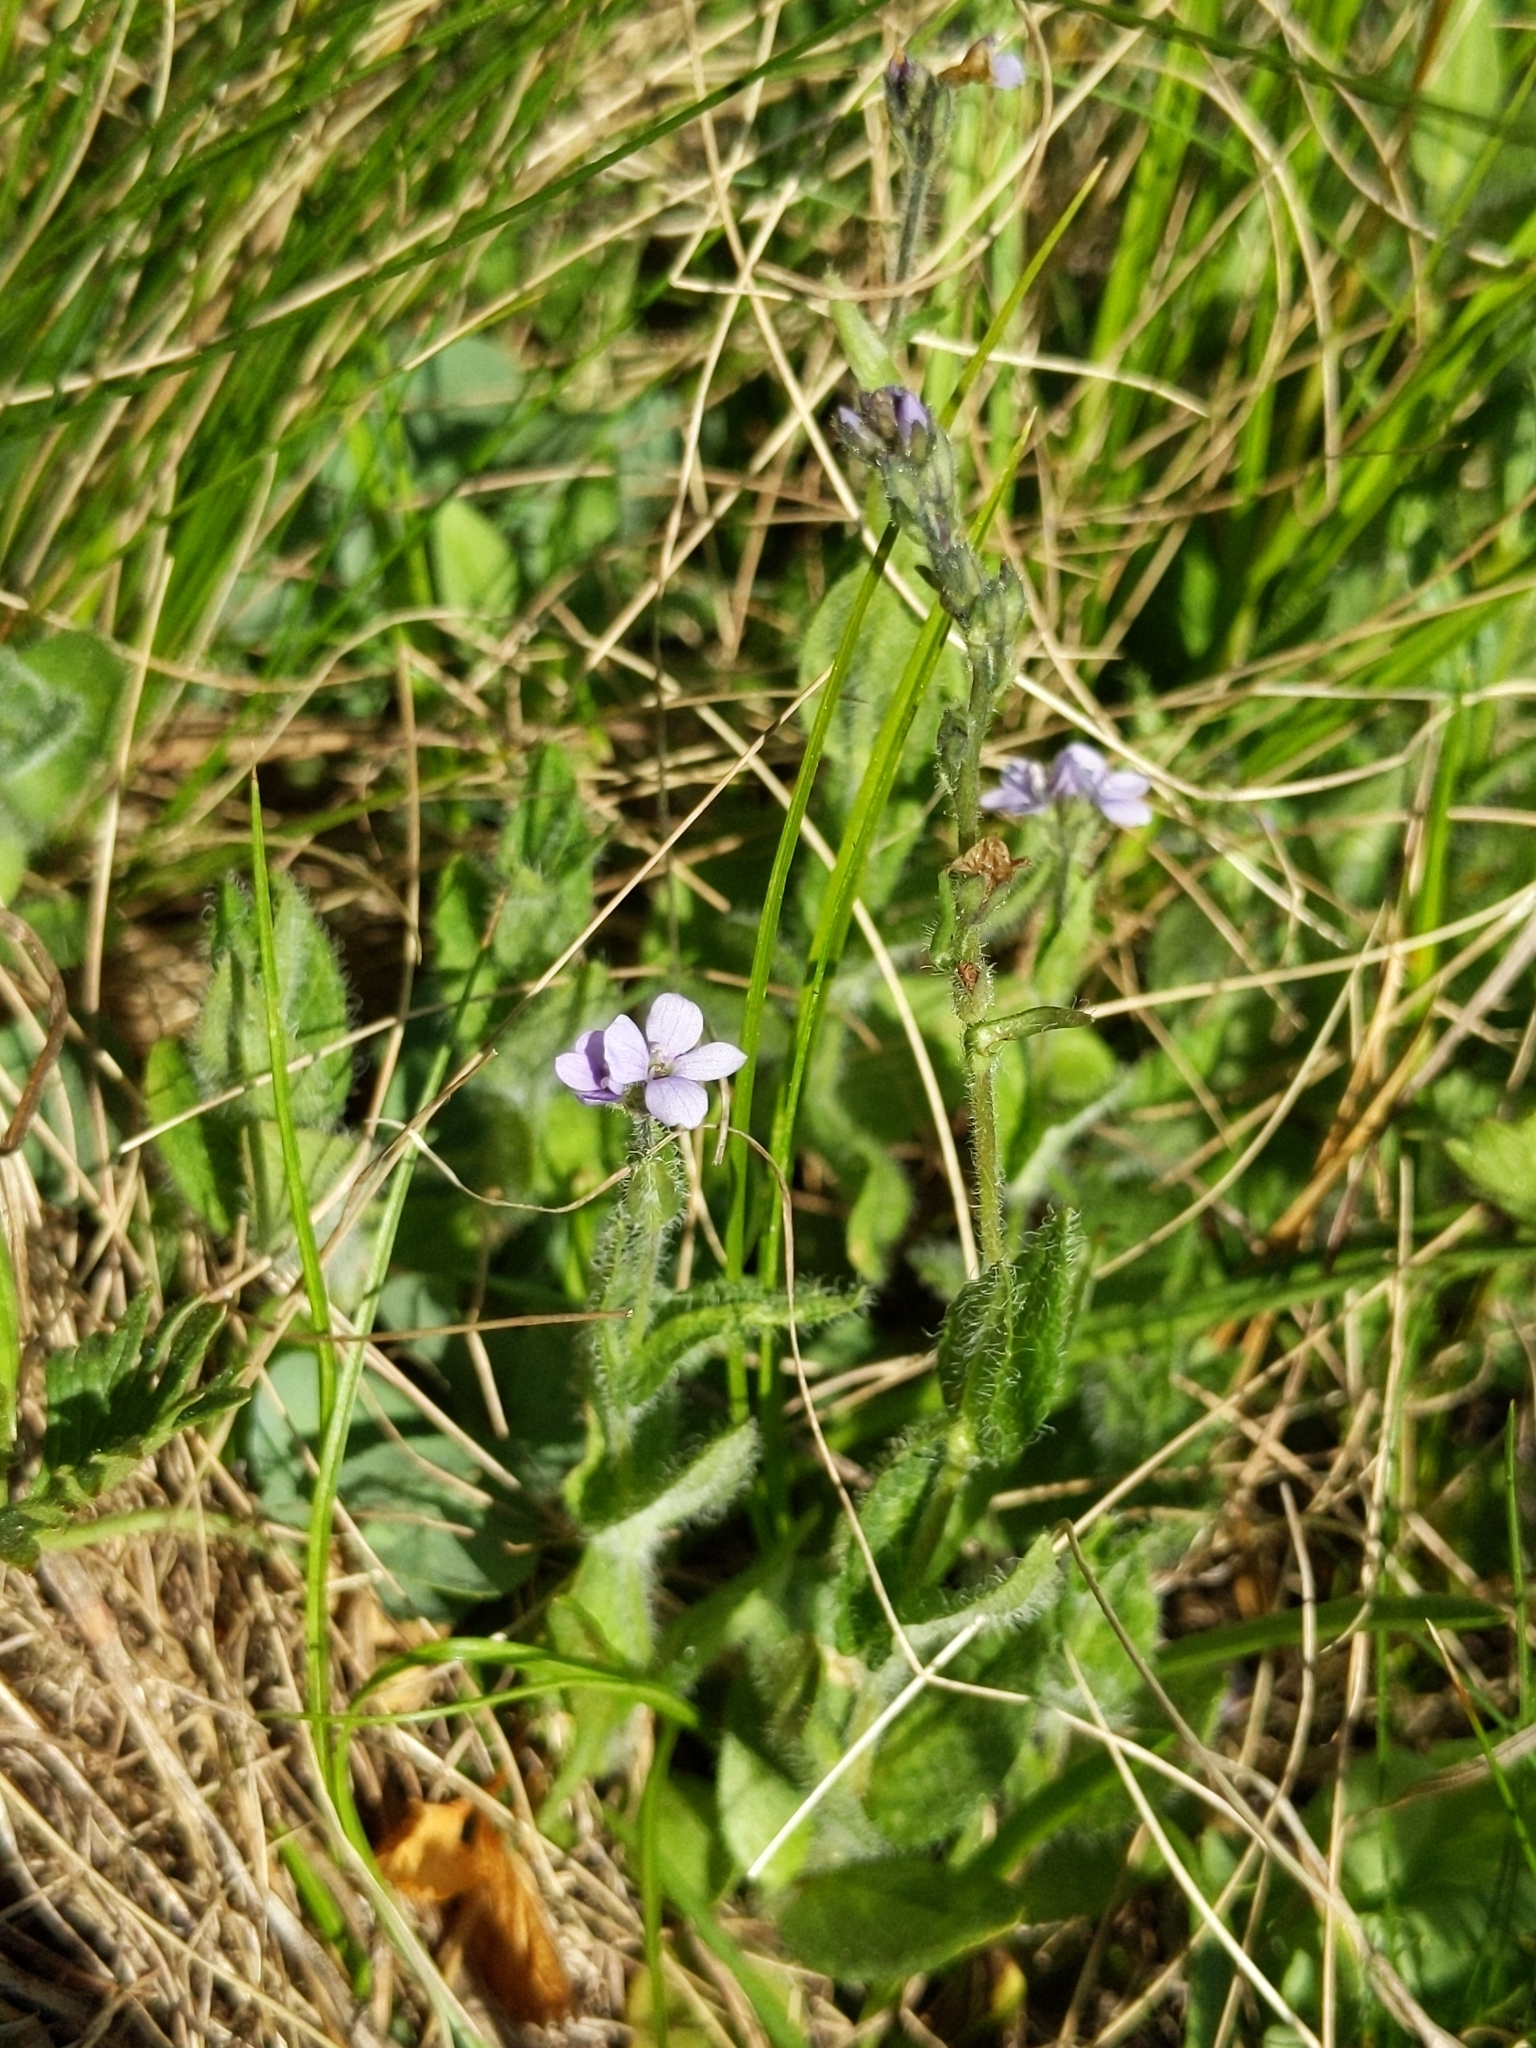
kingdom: Plantae
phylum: Tracheophyta
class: Magnoliopsida
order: Lamiales
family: Plantaginaceae
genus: Veronica
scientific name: Veronica wormskjoldii
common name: American alpine speedwell
